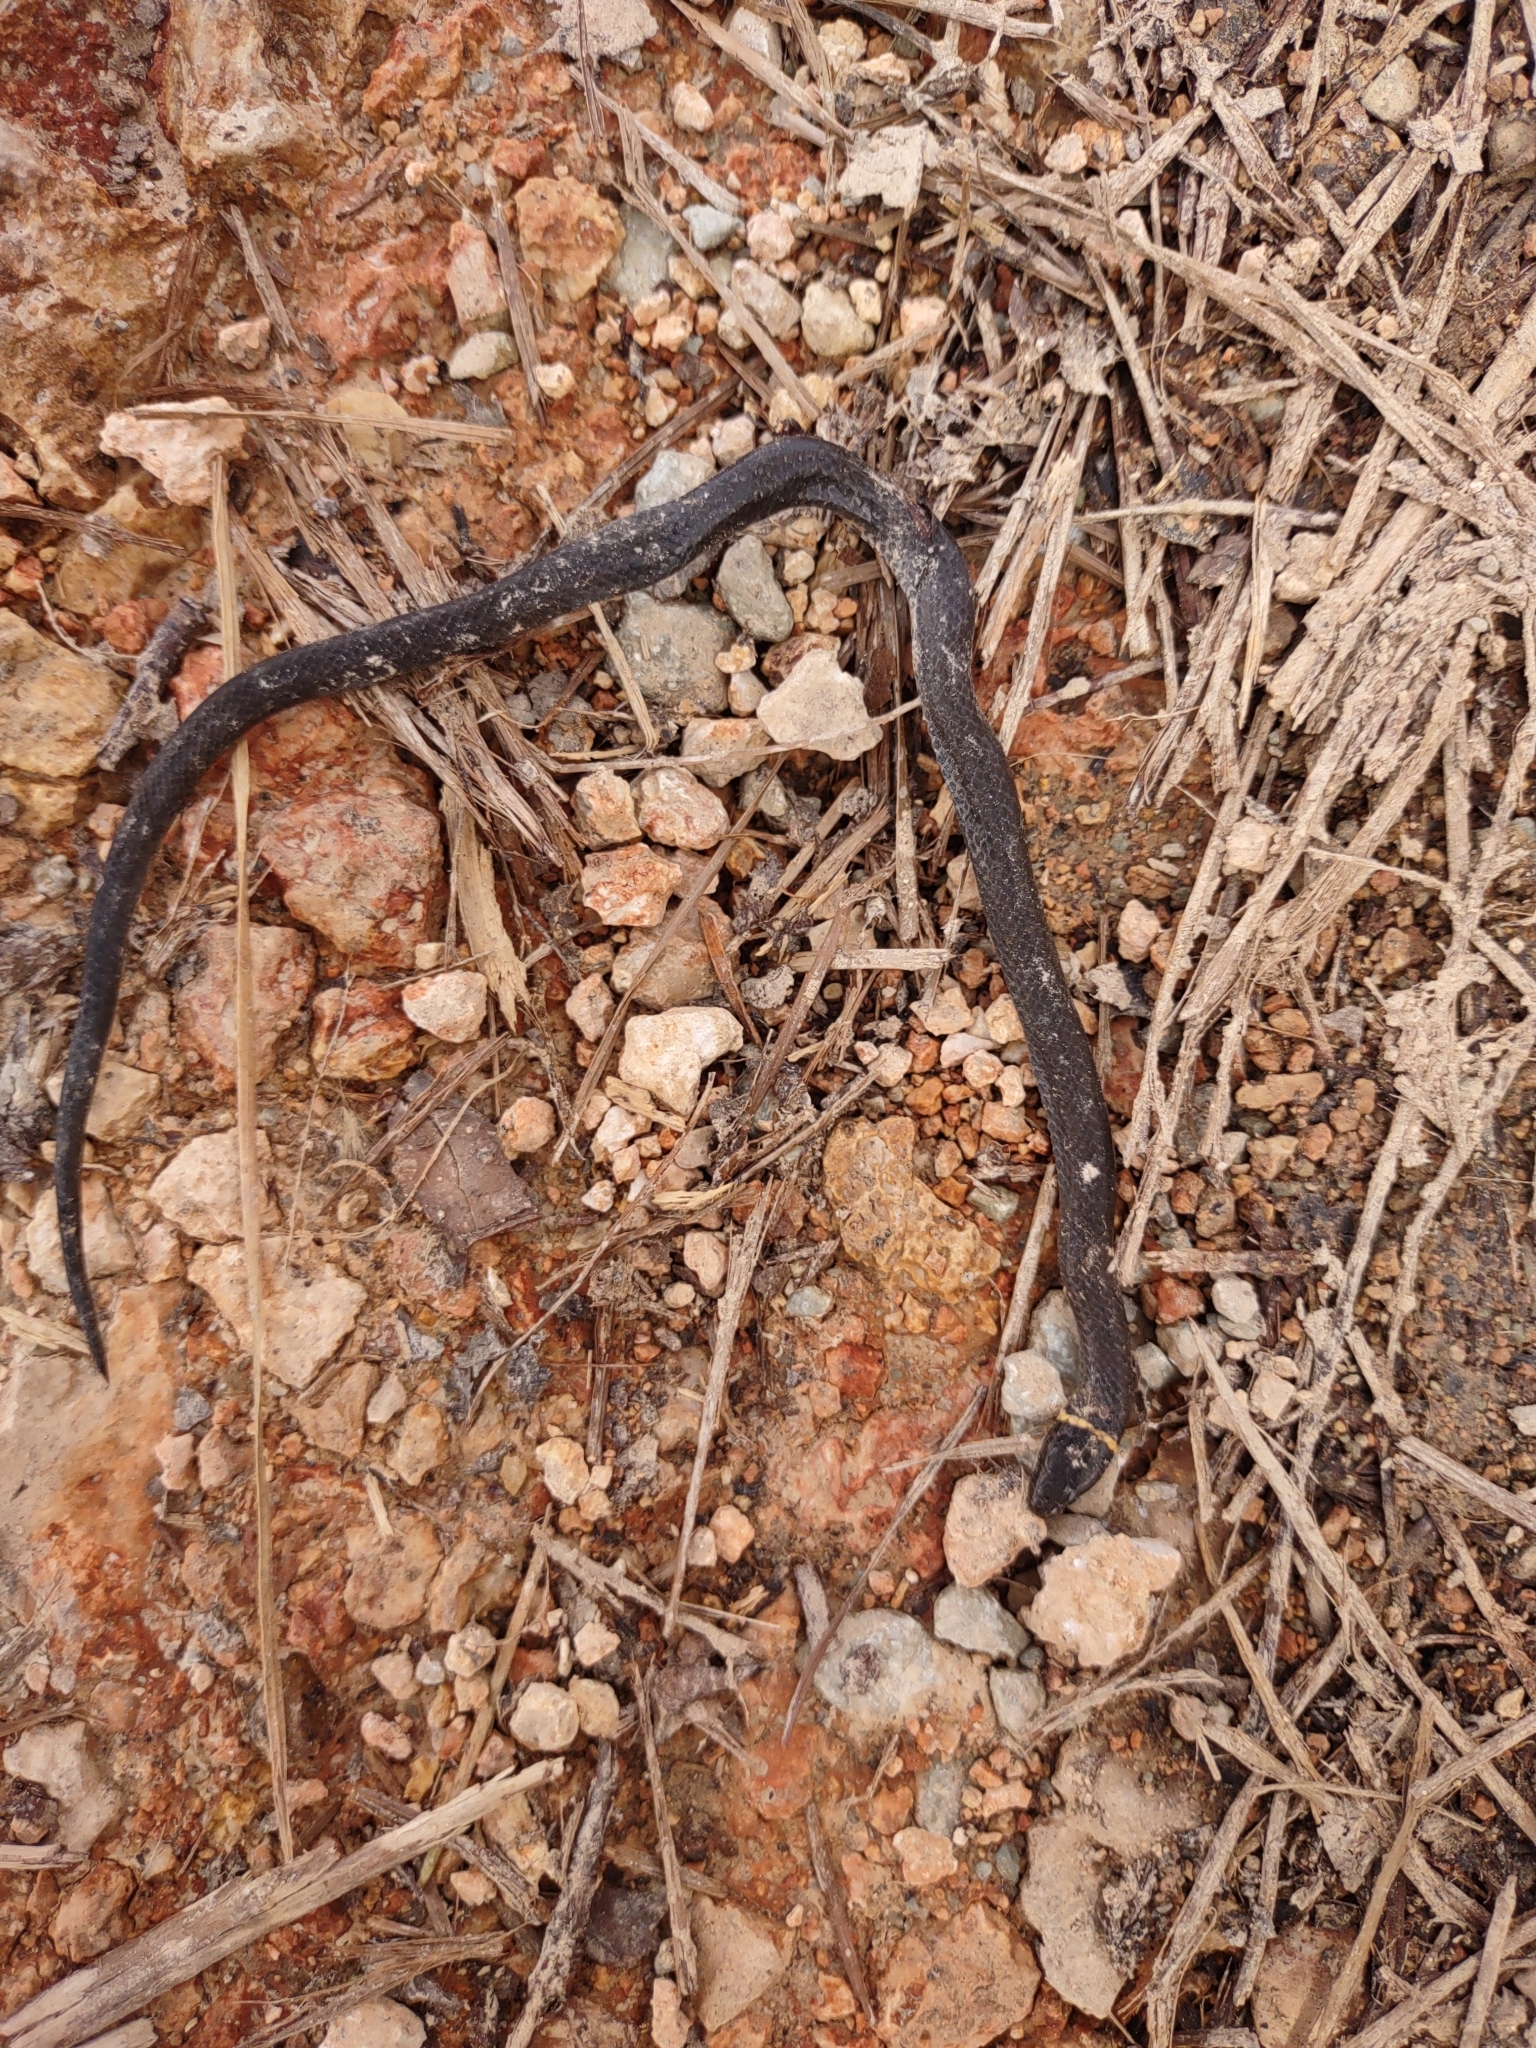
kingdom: Animalia
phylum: Chordata
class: Squamata
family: Colubridae
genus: Diadophis
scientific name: Diadophis punctatus
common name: Ringneck snake
